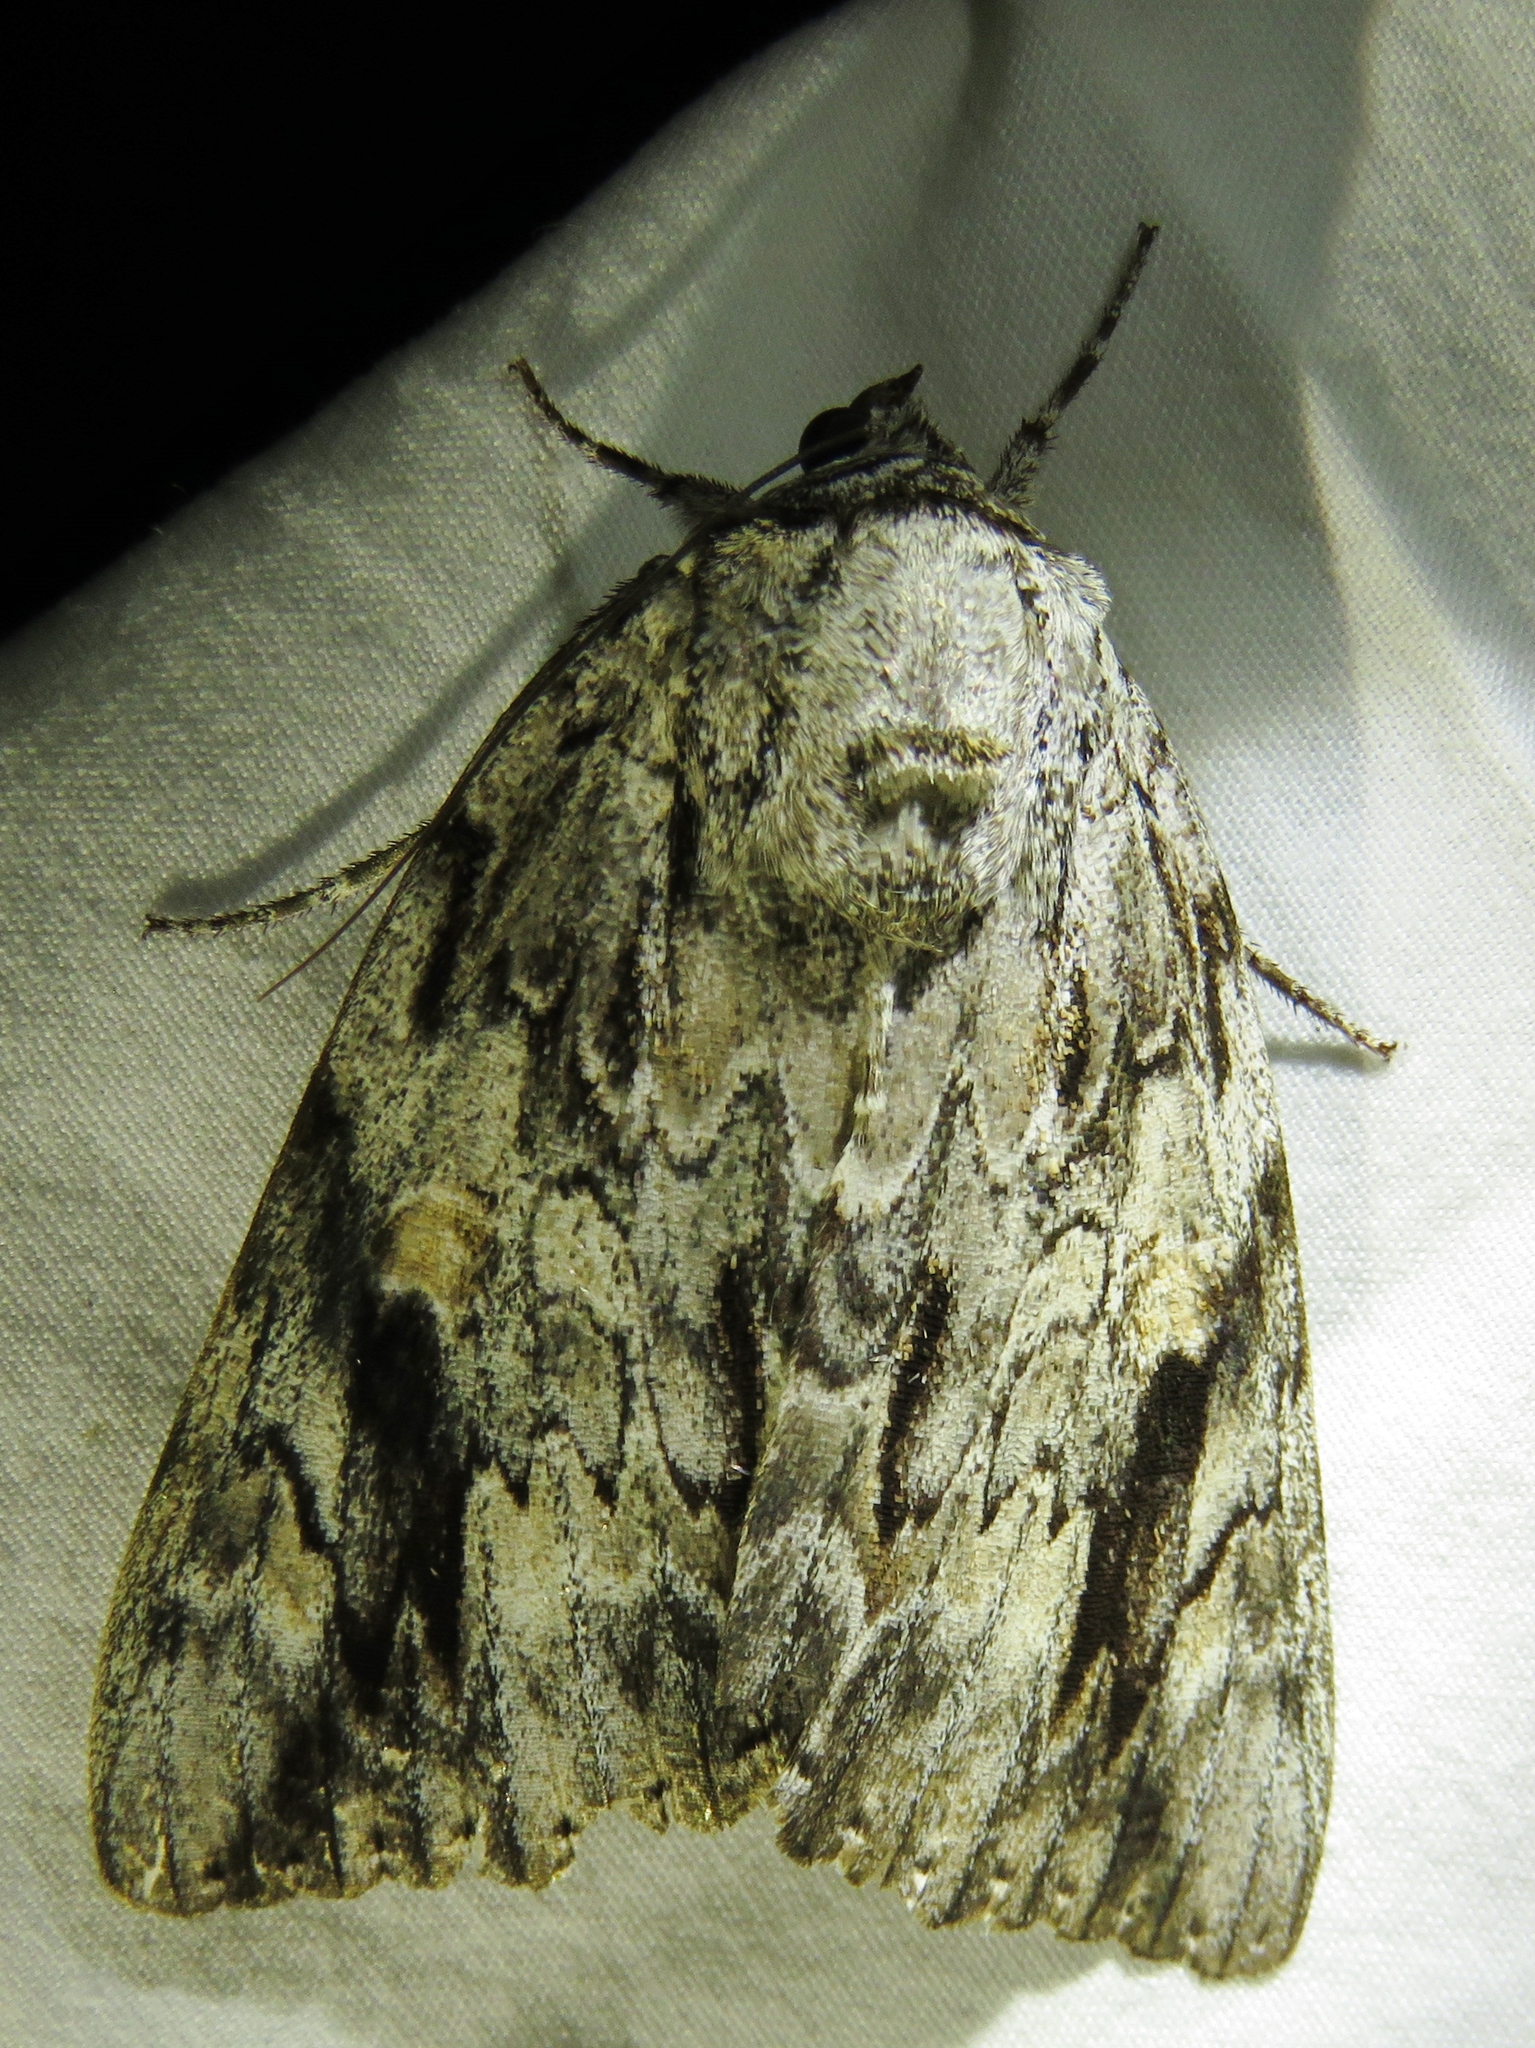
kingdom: Animalia
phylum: Arthropoda
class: Insecta
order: Lepidoptera
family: Erebidae
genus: Catocala
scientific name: Catocala maestosa
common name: Sad underwing
